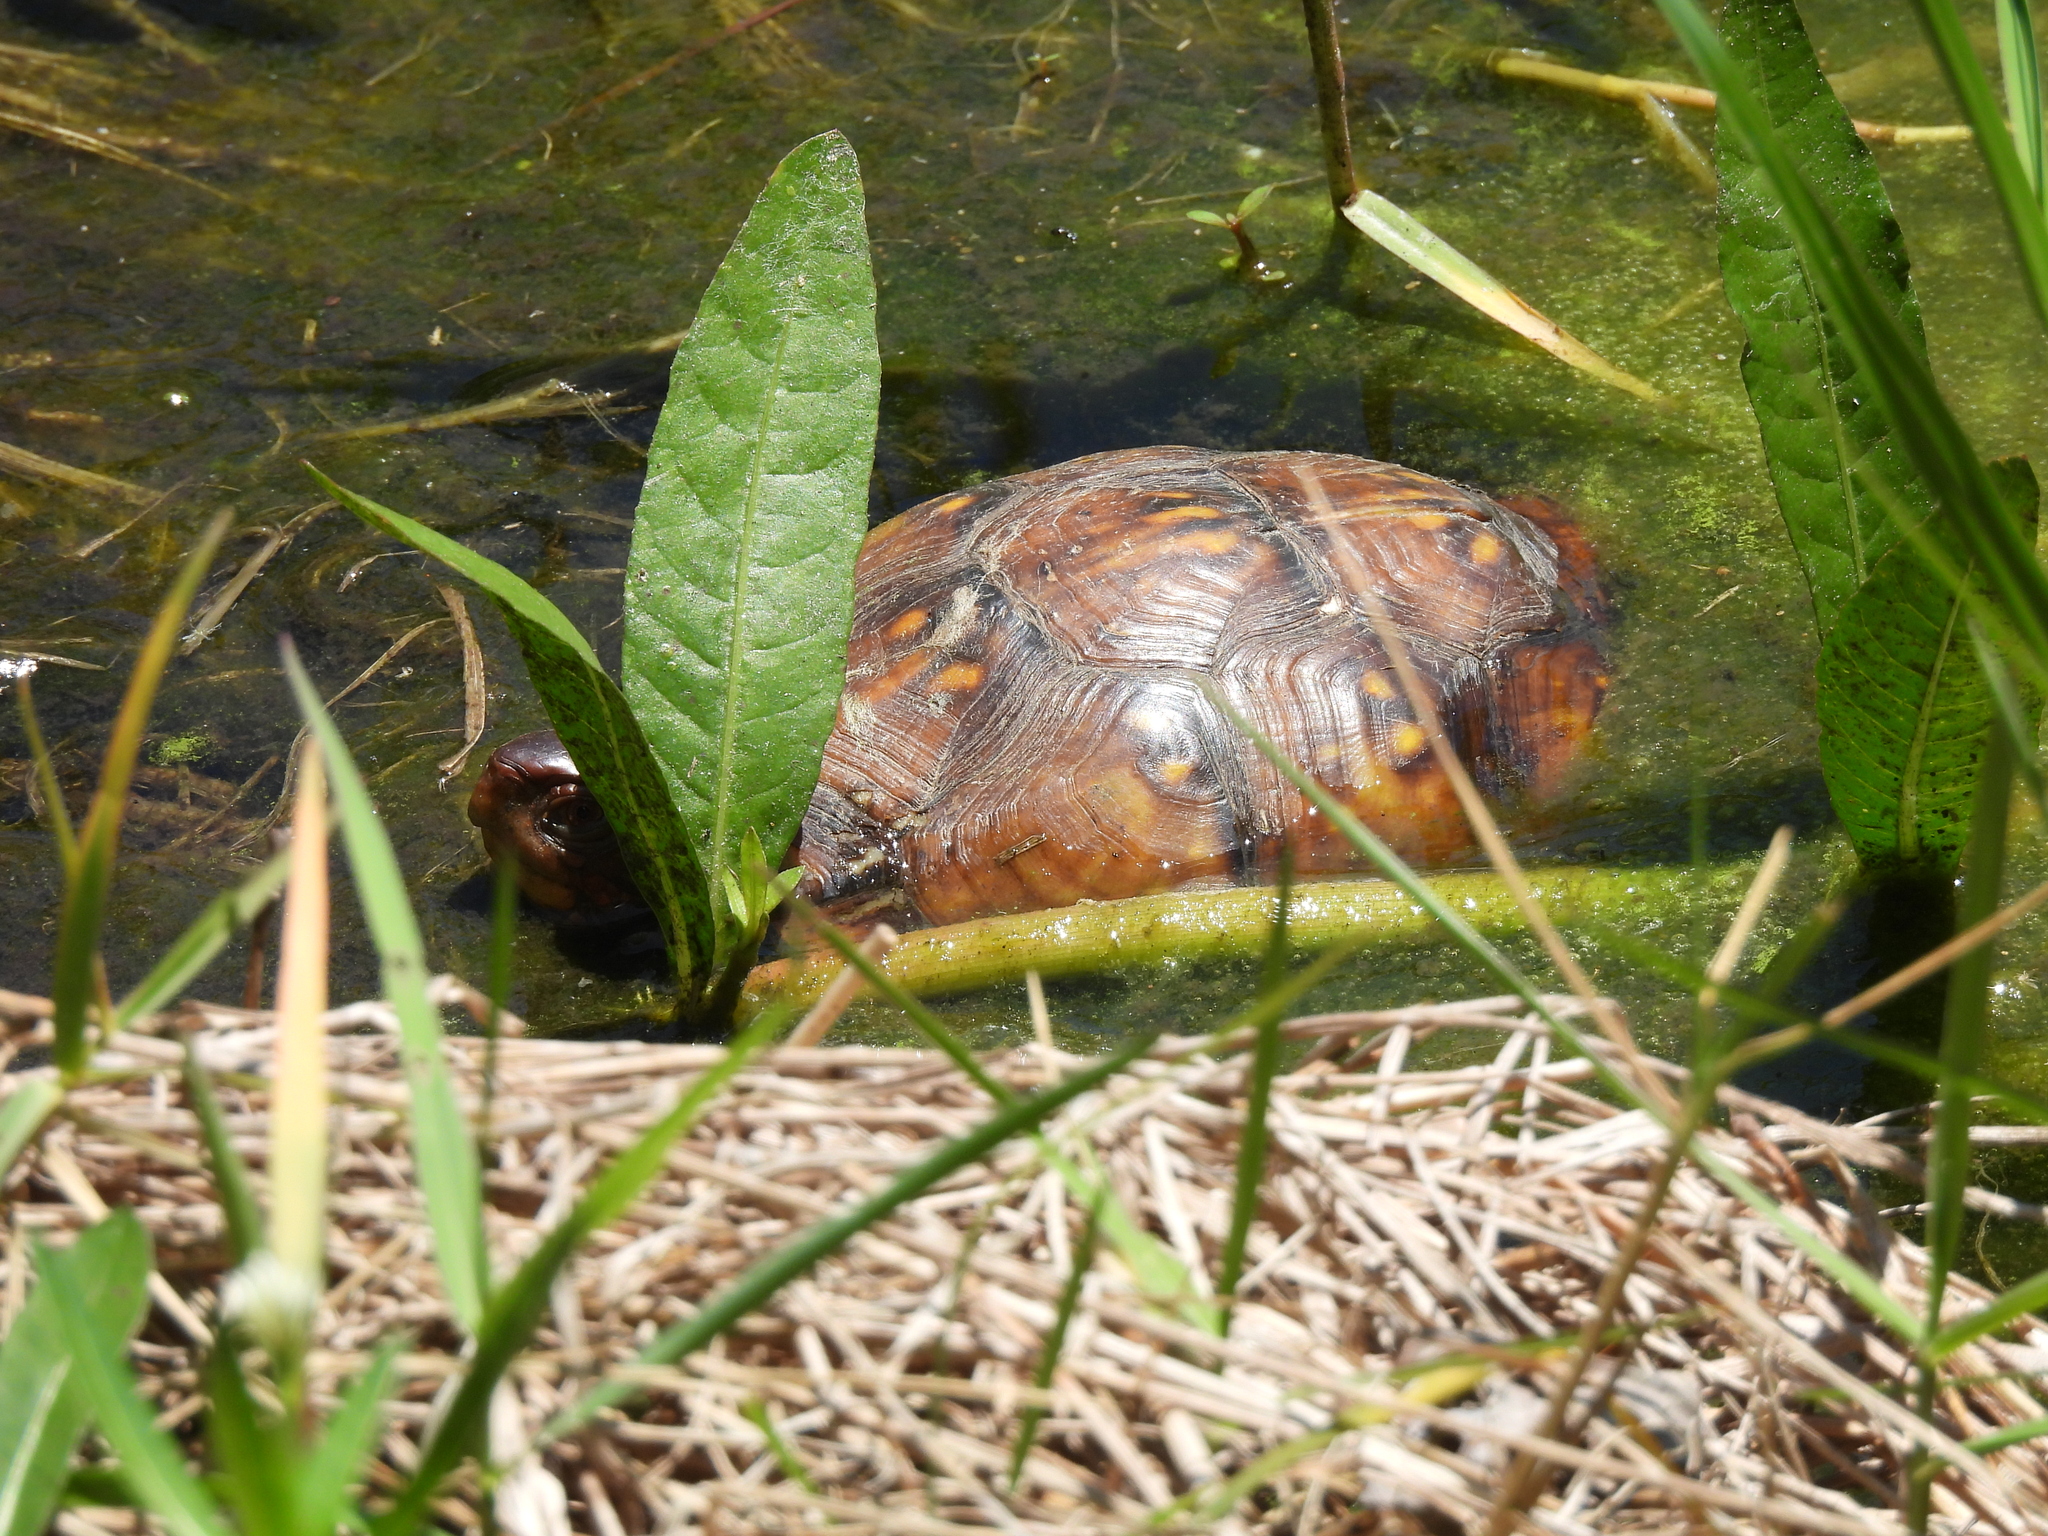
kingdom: Animalia
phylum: Chordata
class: Testudines
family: Emydidae
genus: Terrapene
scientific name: Terrapene carolina
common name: Common box turtle
